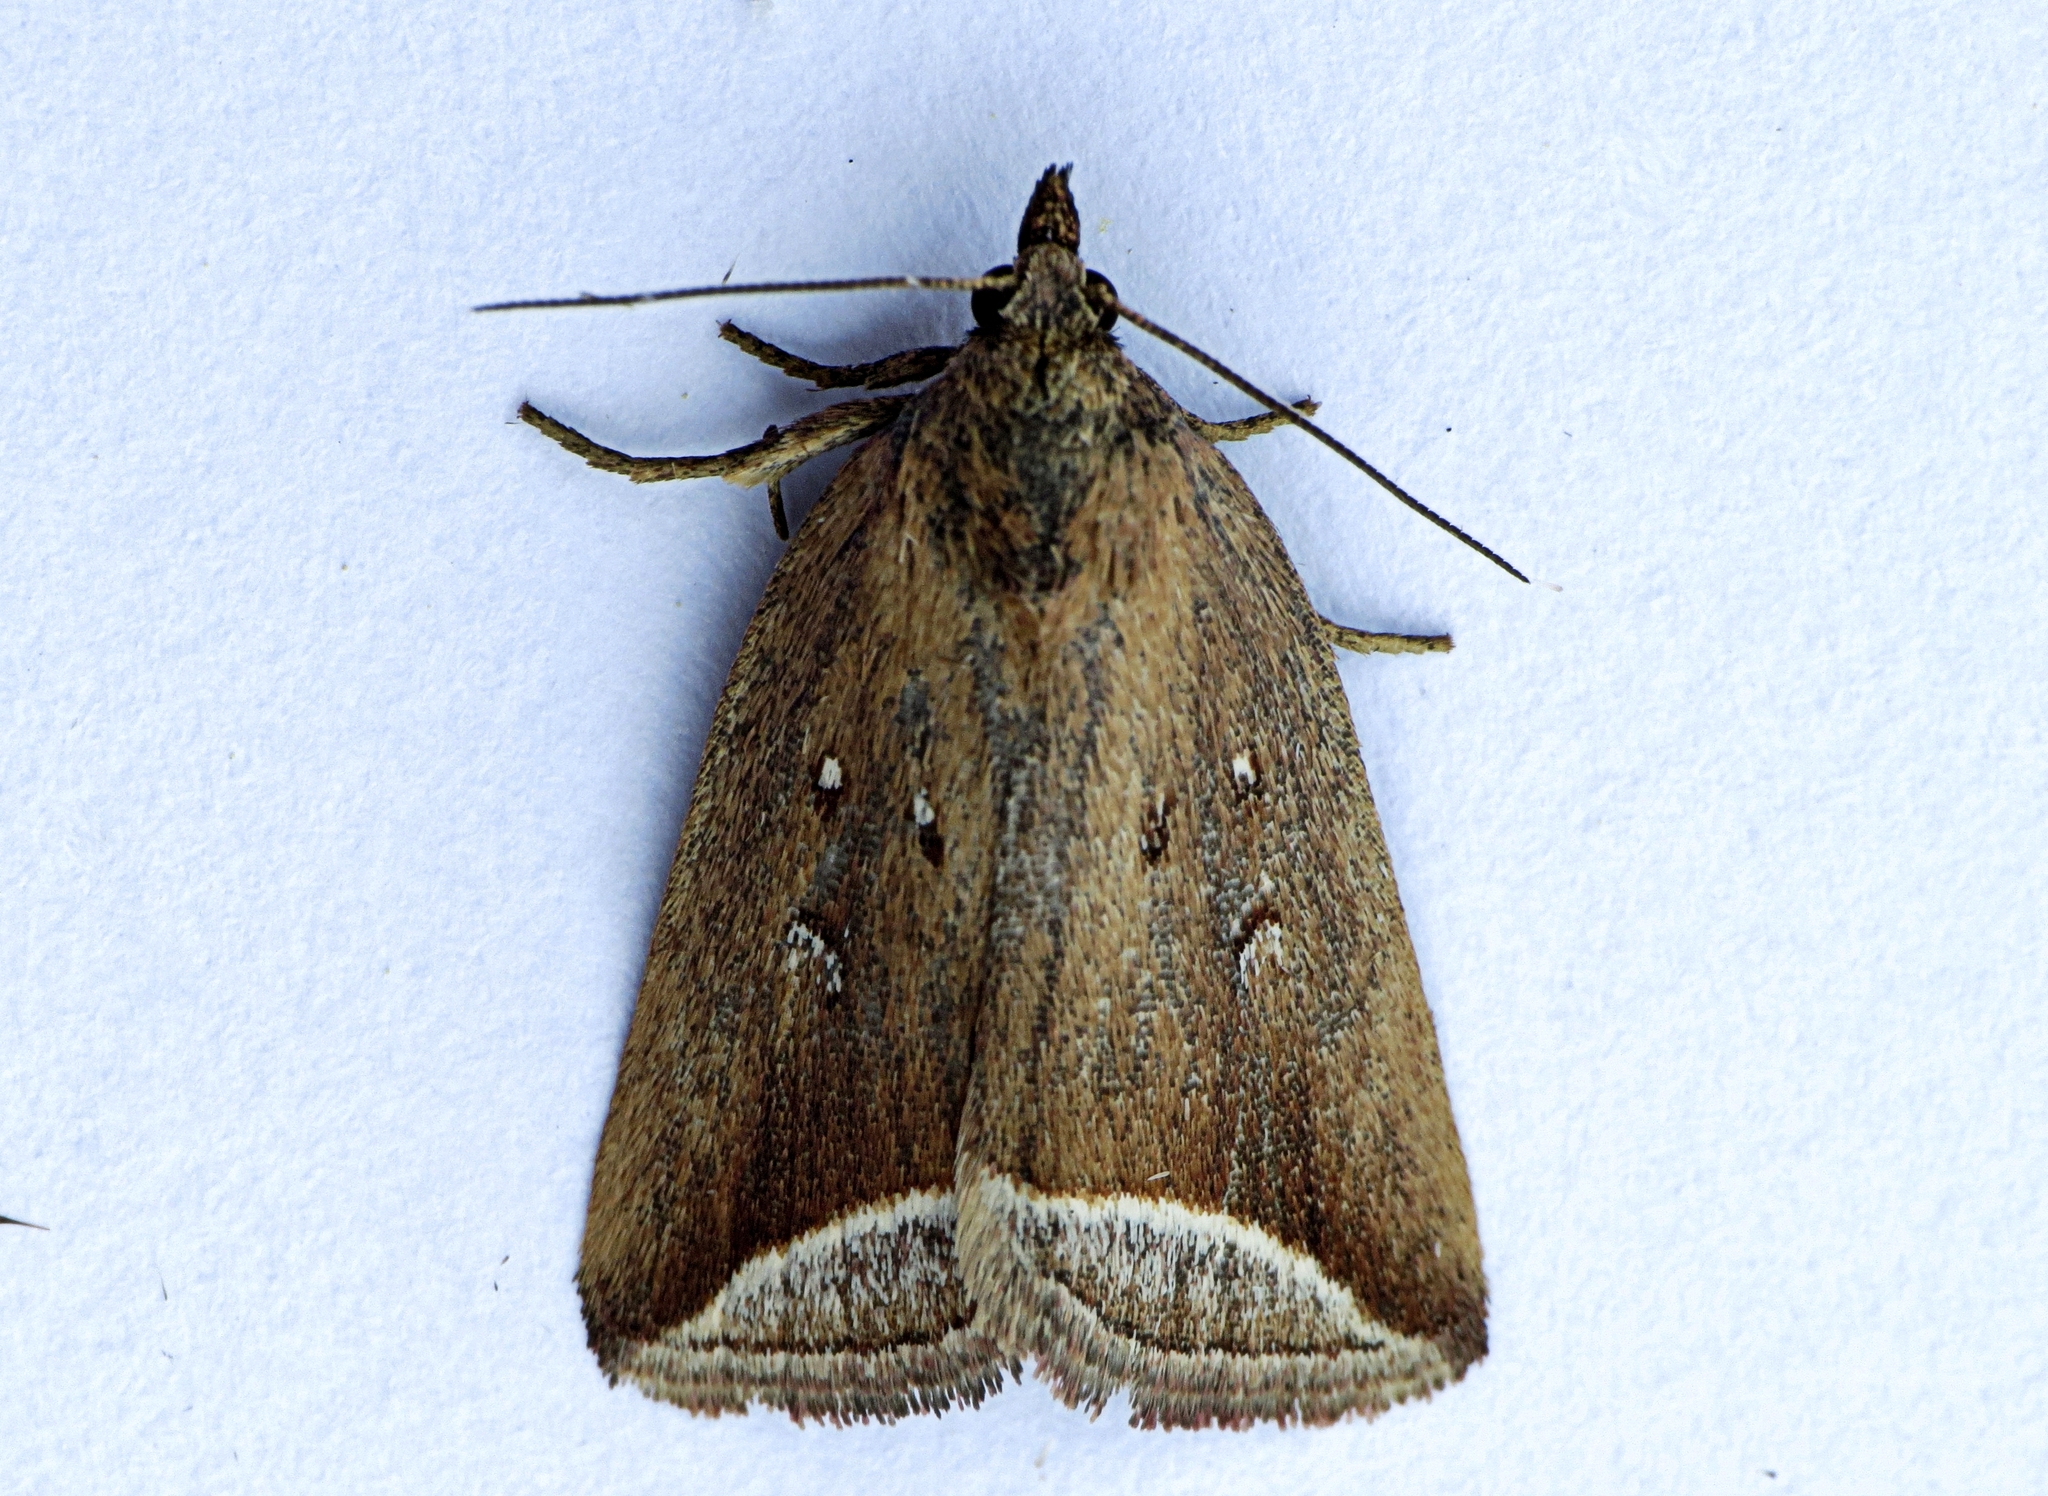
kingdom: Animalia
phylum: Arthropoda
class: Insecta
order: Lepidoptera
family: Erebidae
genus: Capis
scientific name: Capis curvata
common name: Curved halter moth
